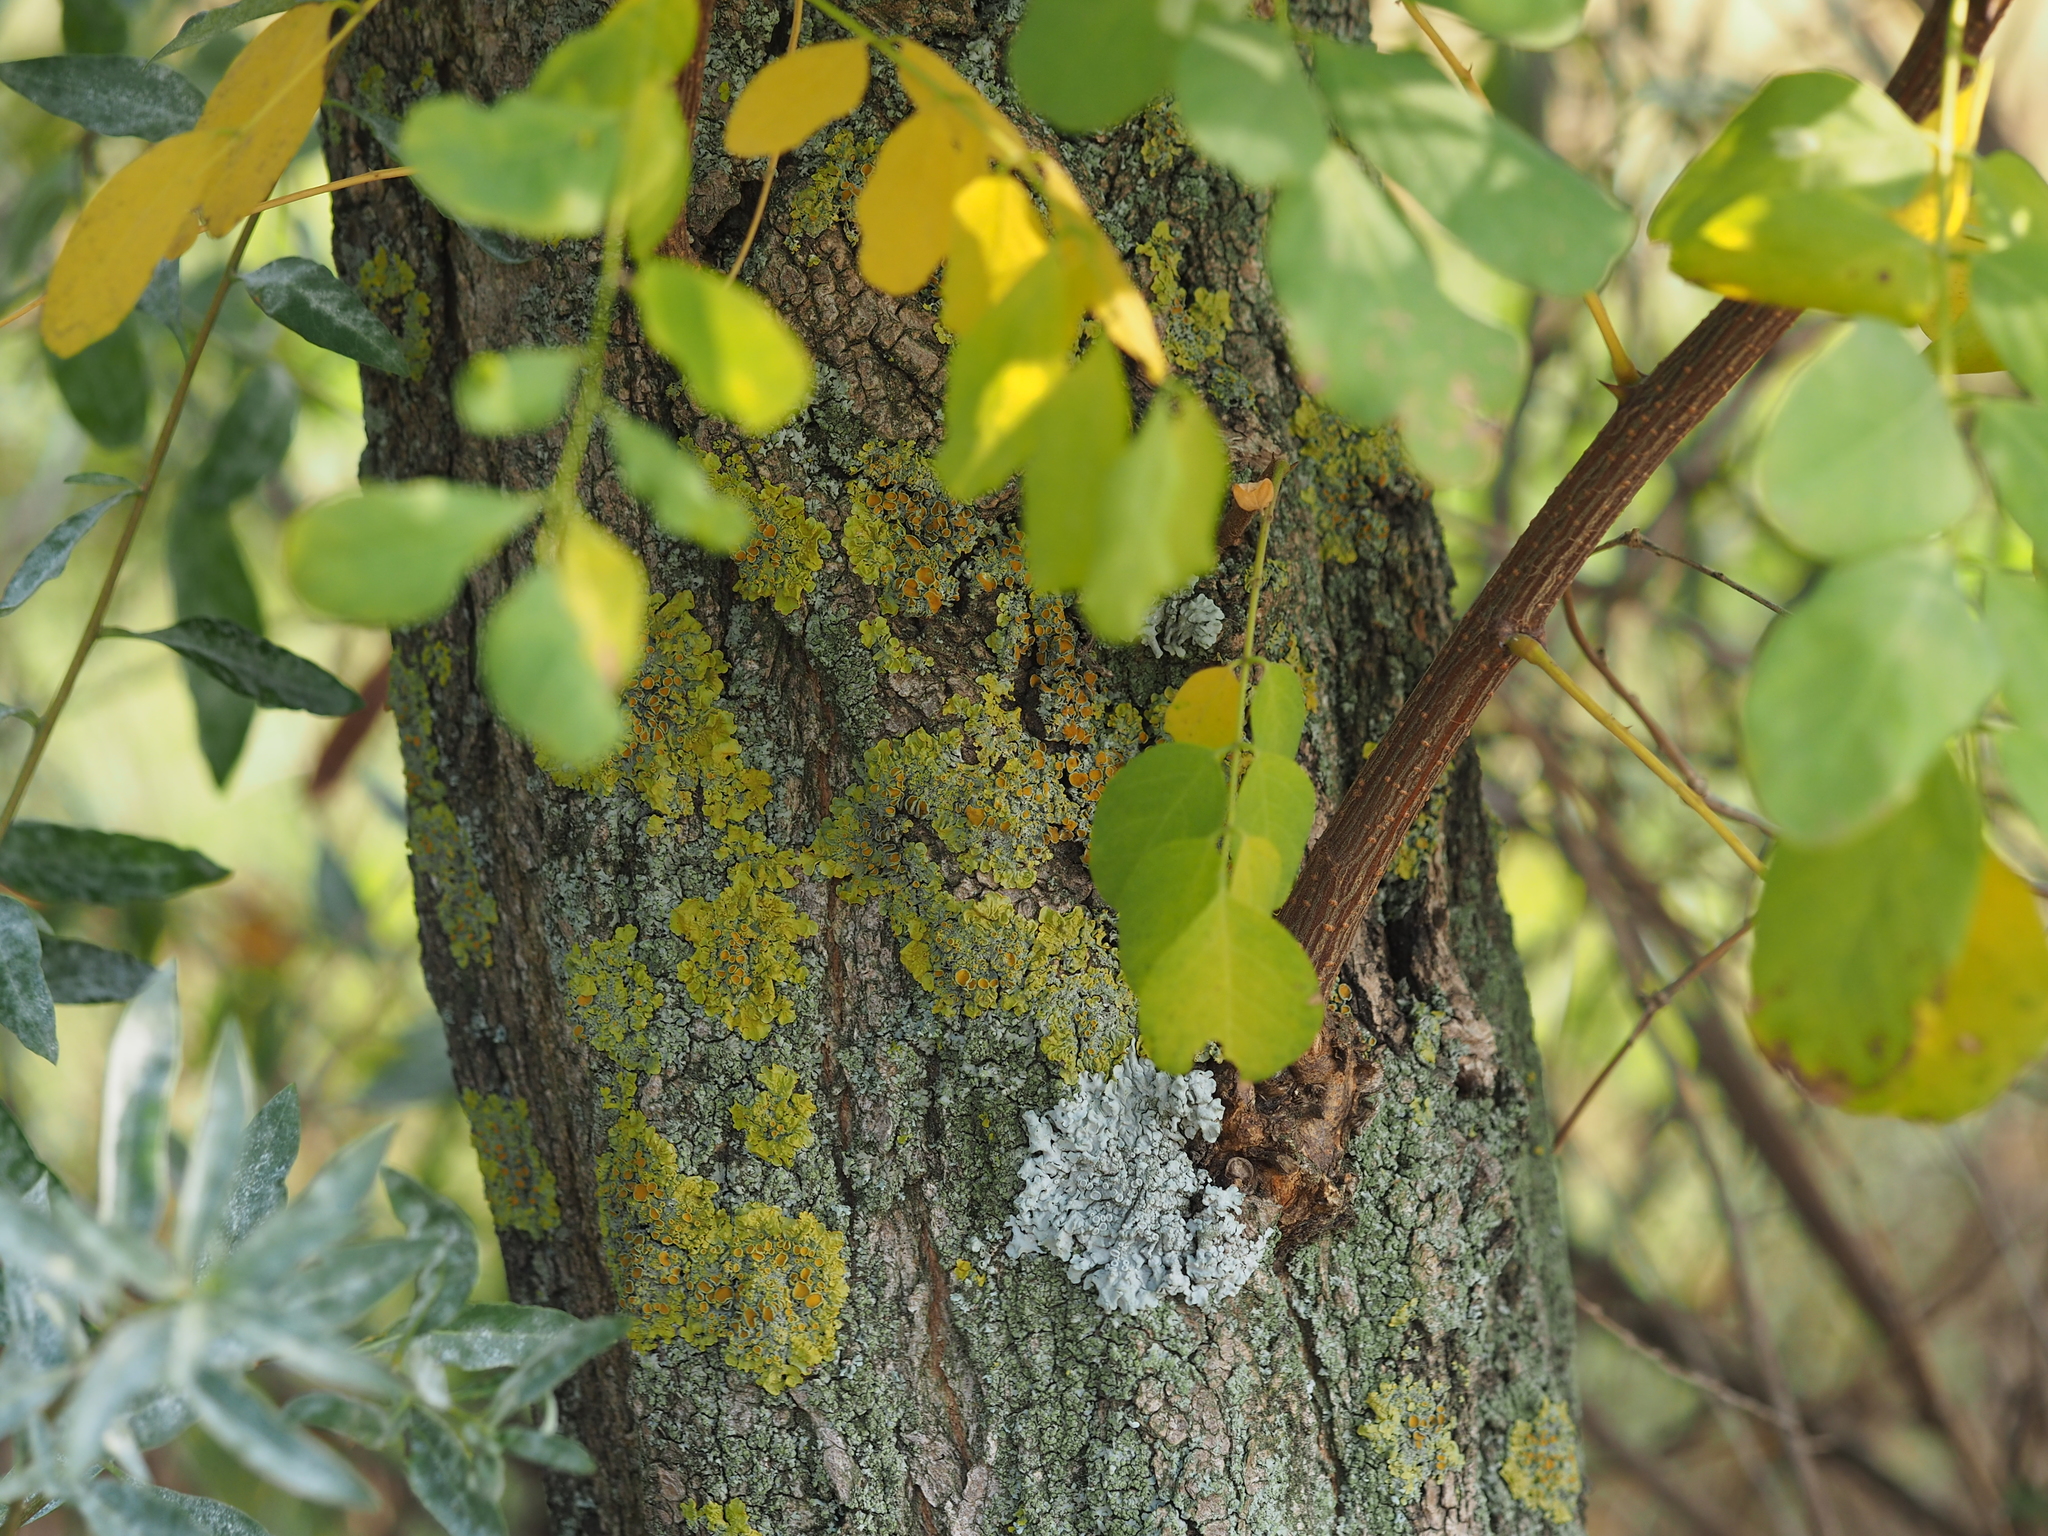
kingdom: Fungi
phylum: Ascomycota
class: Lecanoromycetes
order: Teloschistales
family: Teloschistaceae
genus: Xanthoria
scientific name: Xanthoria parietina
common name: Common orange lichen
